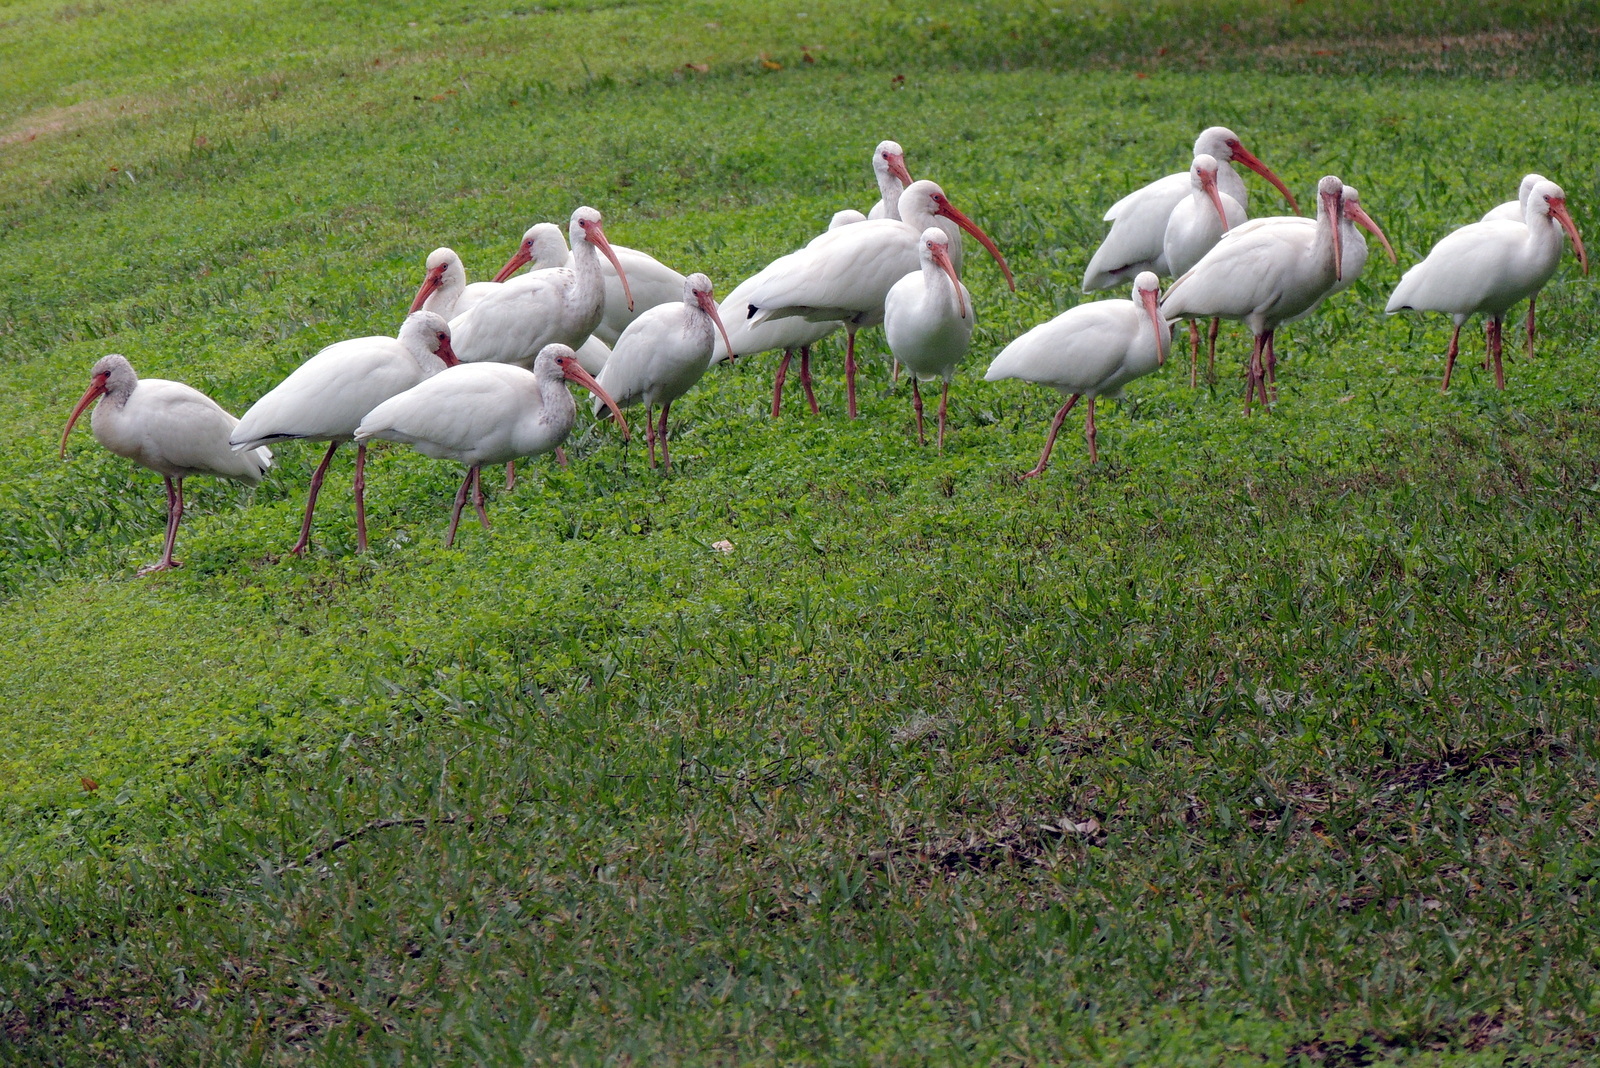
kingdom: Animalia
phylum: Chordata
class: Aves
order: Pelecaniformes
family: Threskiornithidae
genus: Eudocimus
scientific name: Eudocimus albus
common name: White ibis
